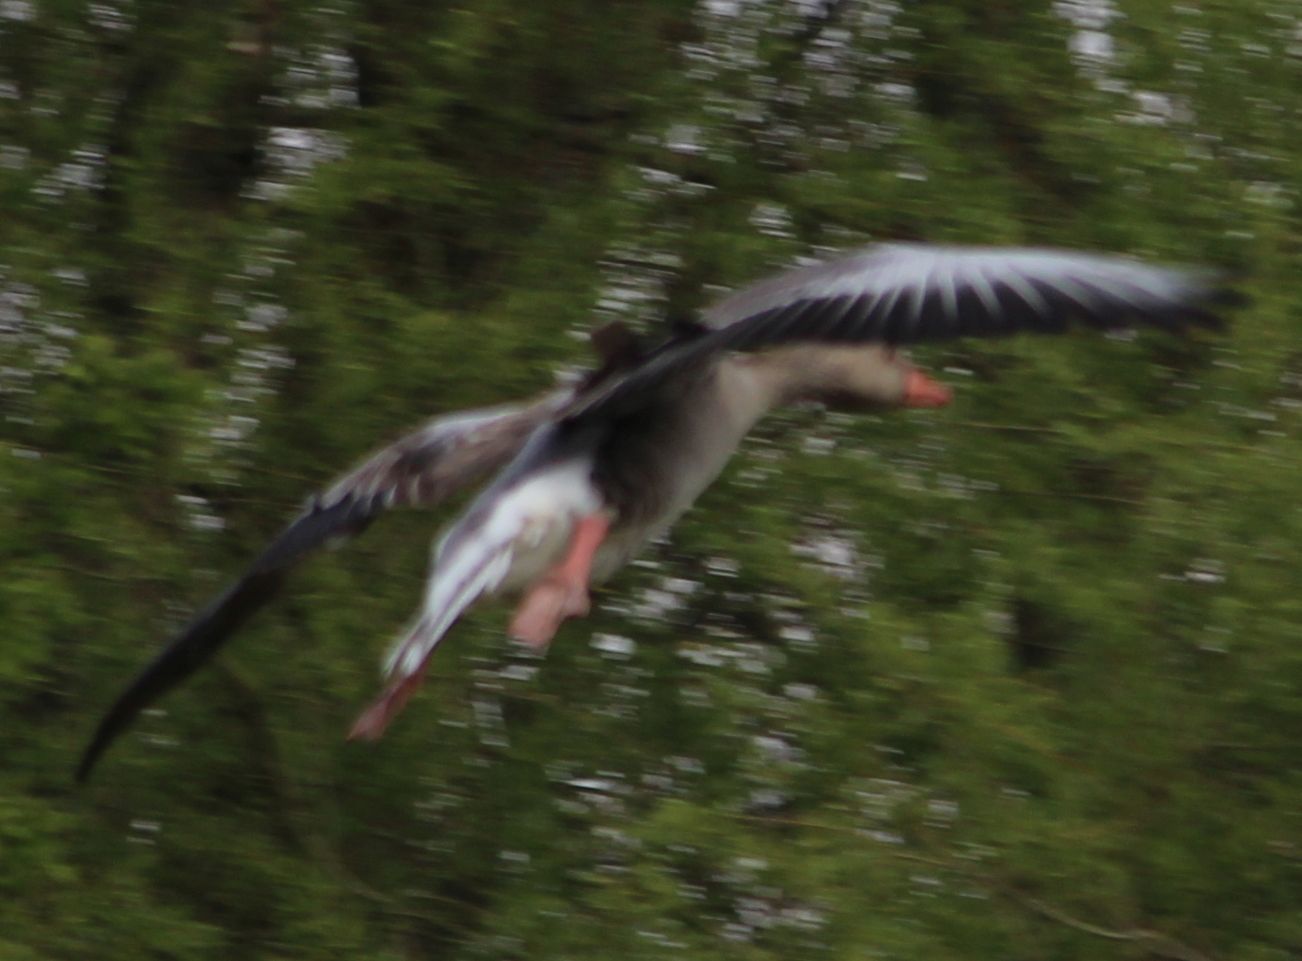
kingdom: Animalia
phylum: Chordata
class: Aves
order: Anseriformes
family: Anatidae
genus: Anser
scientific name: Anser anser
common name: Greylag goose
